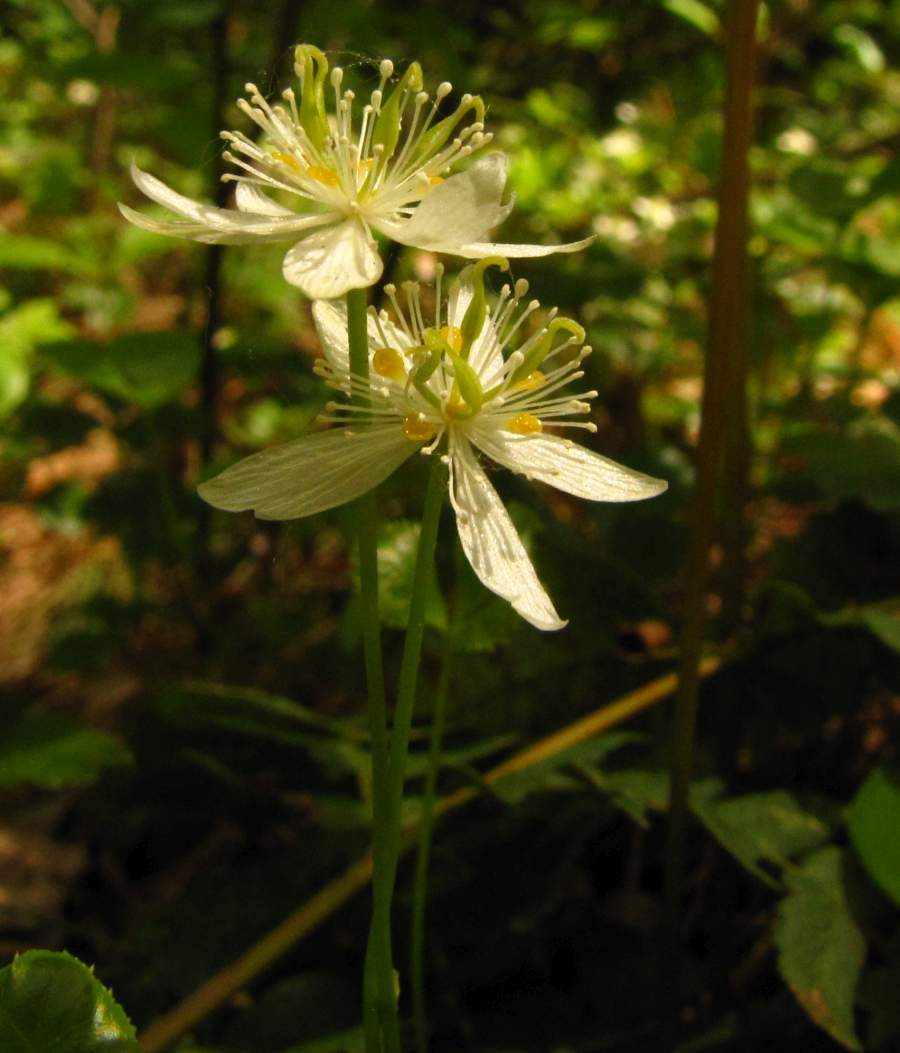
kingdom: Plantae
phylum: Tracheophyta
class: Magnoliopsida
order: Ranunculales
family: Ranunculaceae
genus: Coptis
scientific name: Coptis trifolia
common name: Canker-root
